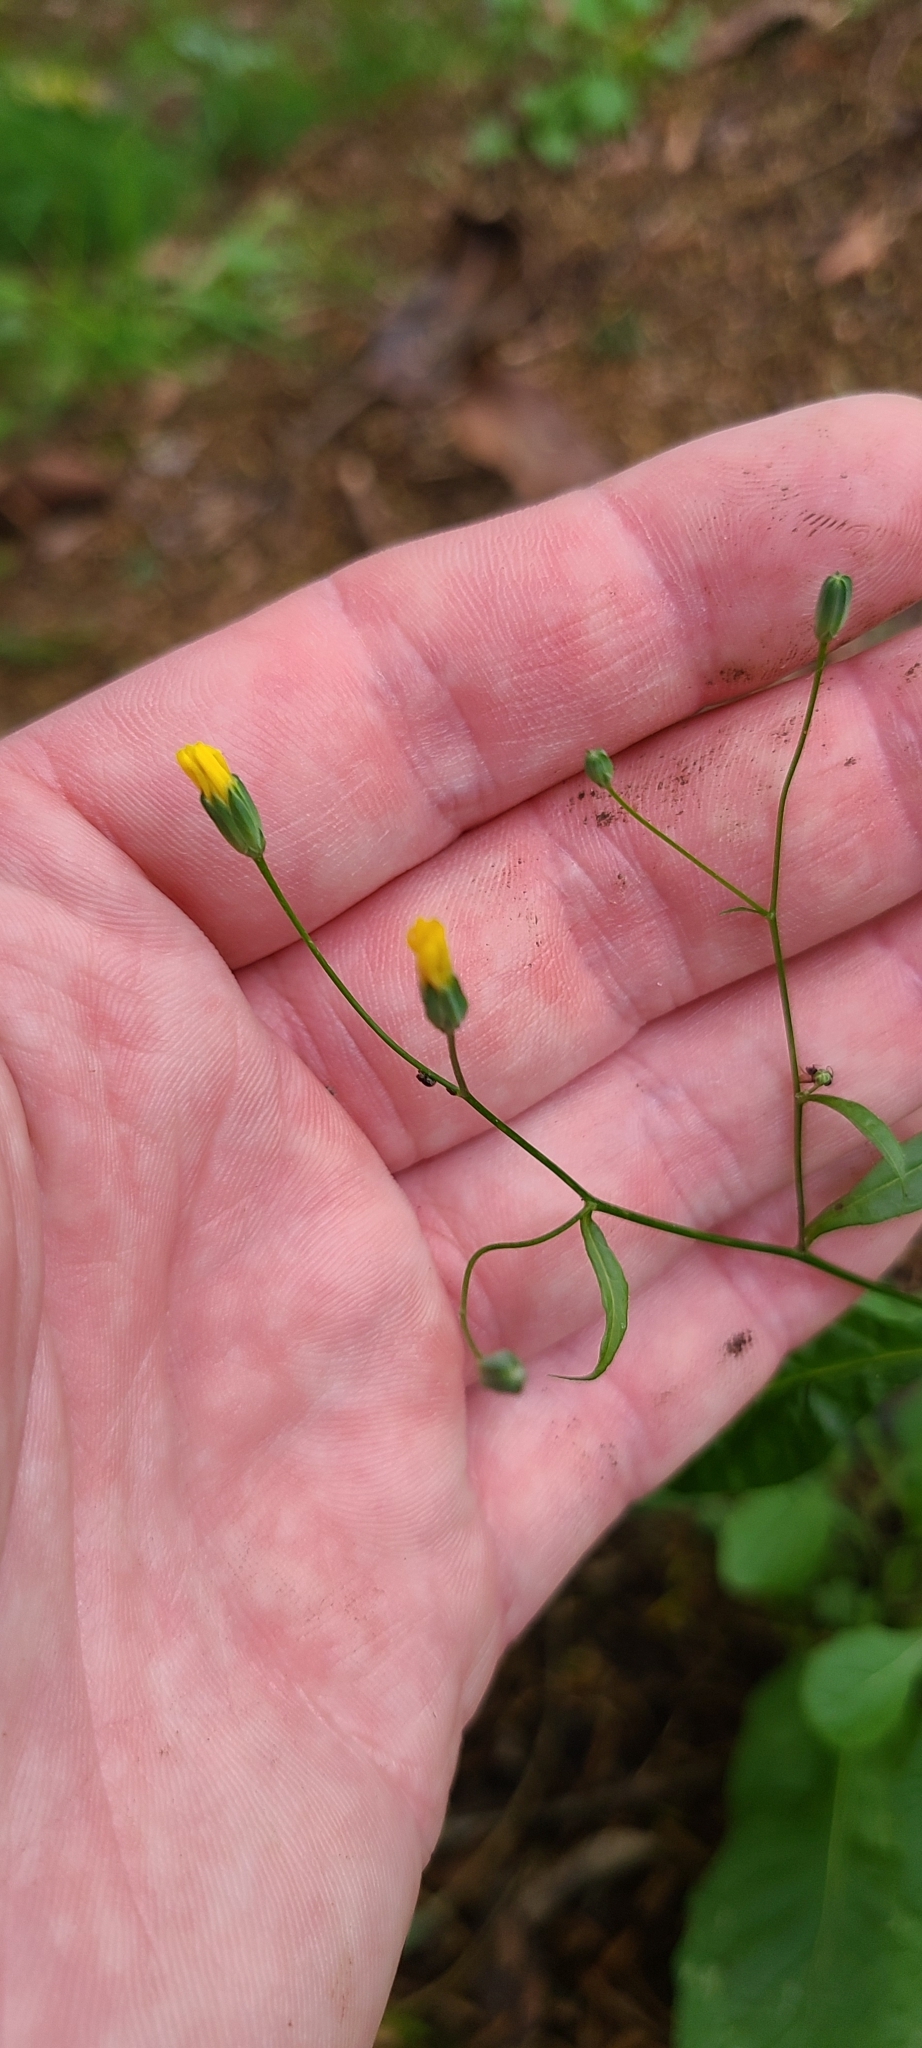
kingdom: Plantae
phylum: Tracheophyta
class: Magnoliopsida
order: Asterales
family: Asteraceae
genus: Lapsana
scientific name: Lapsana communis
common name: Nipplewort
